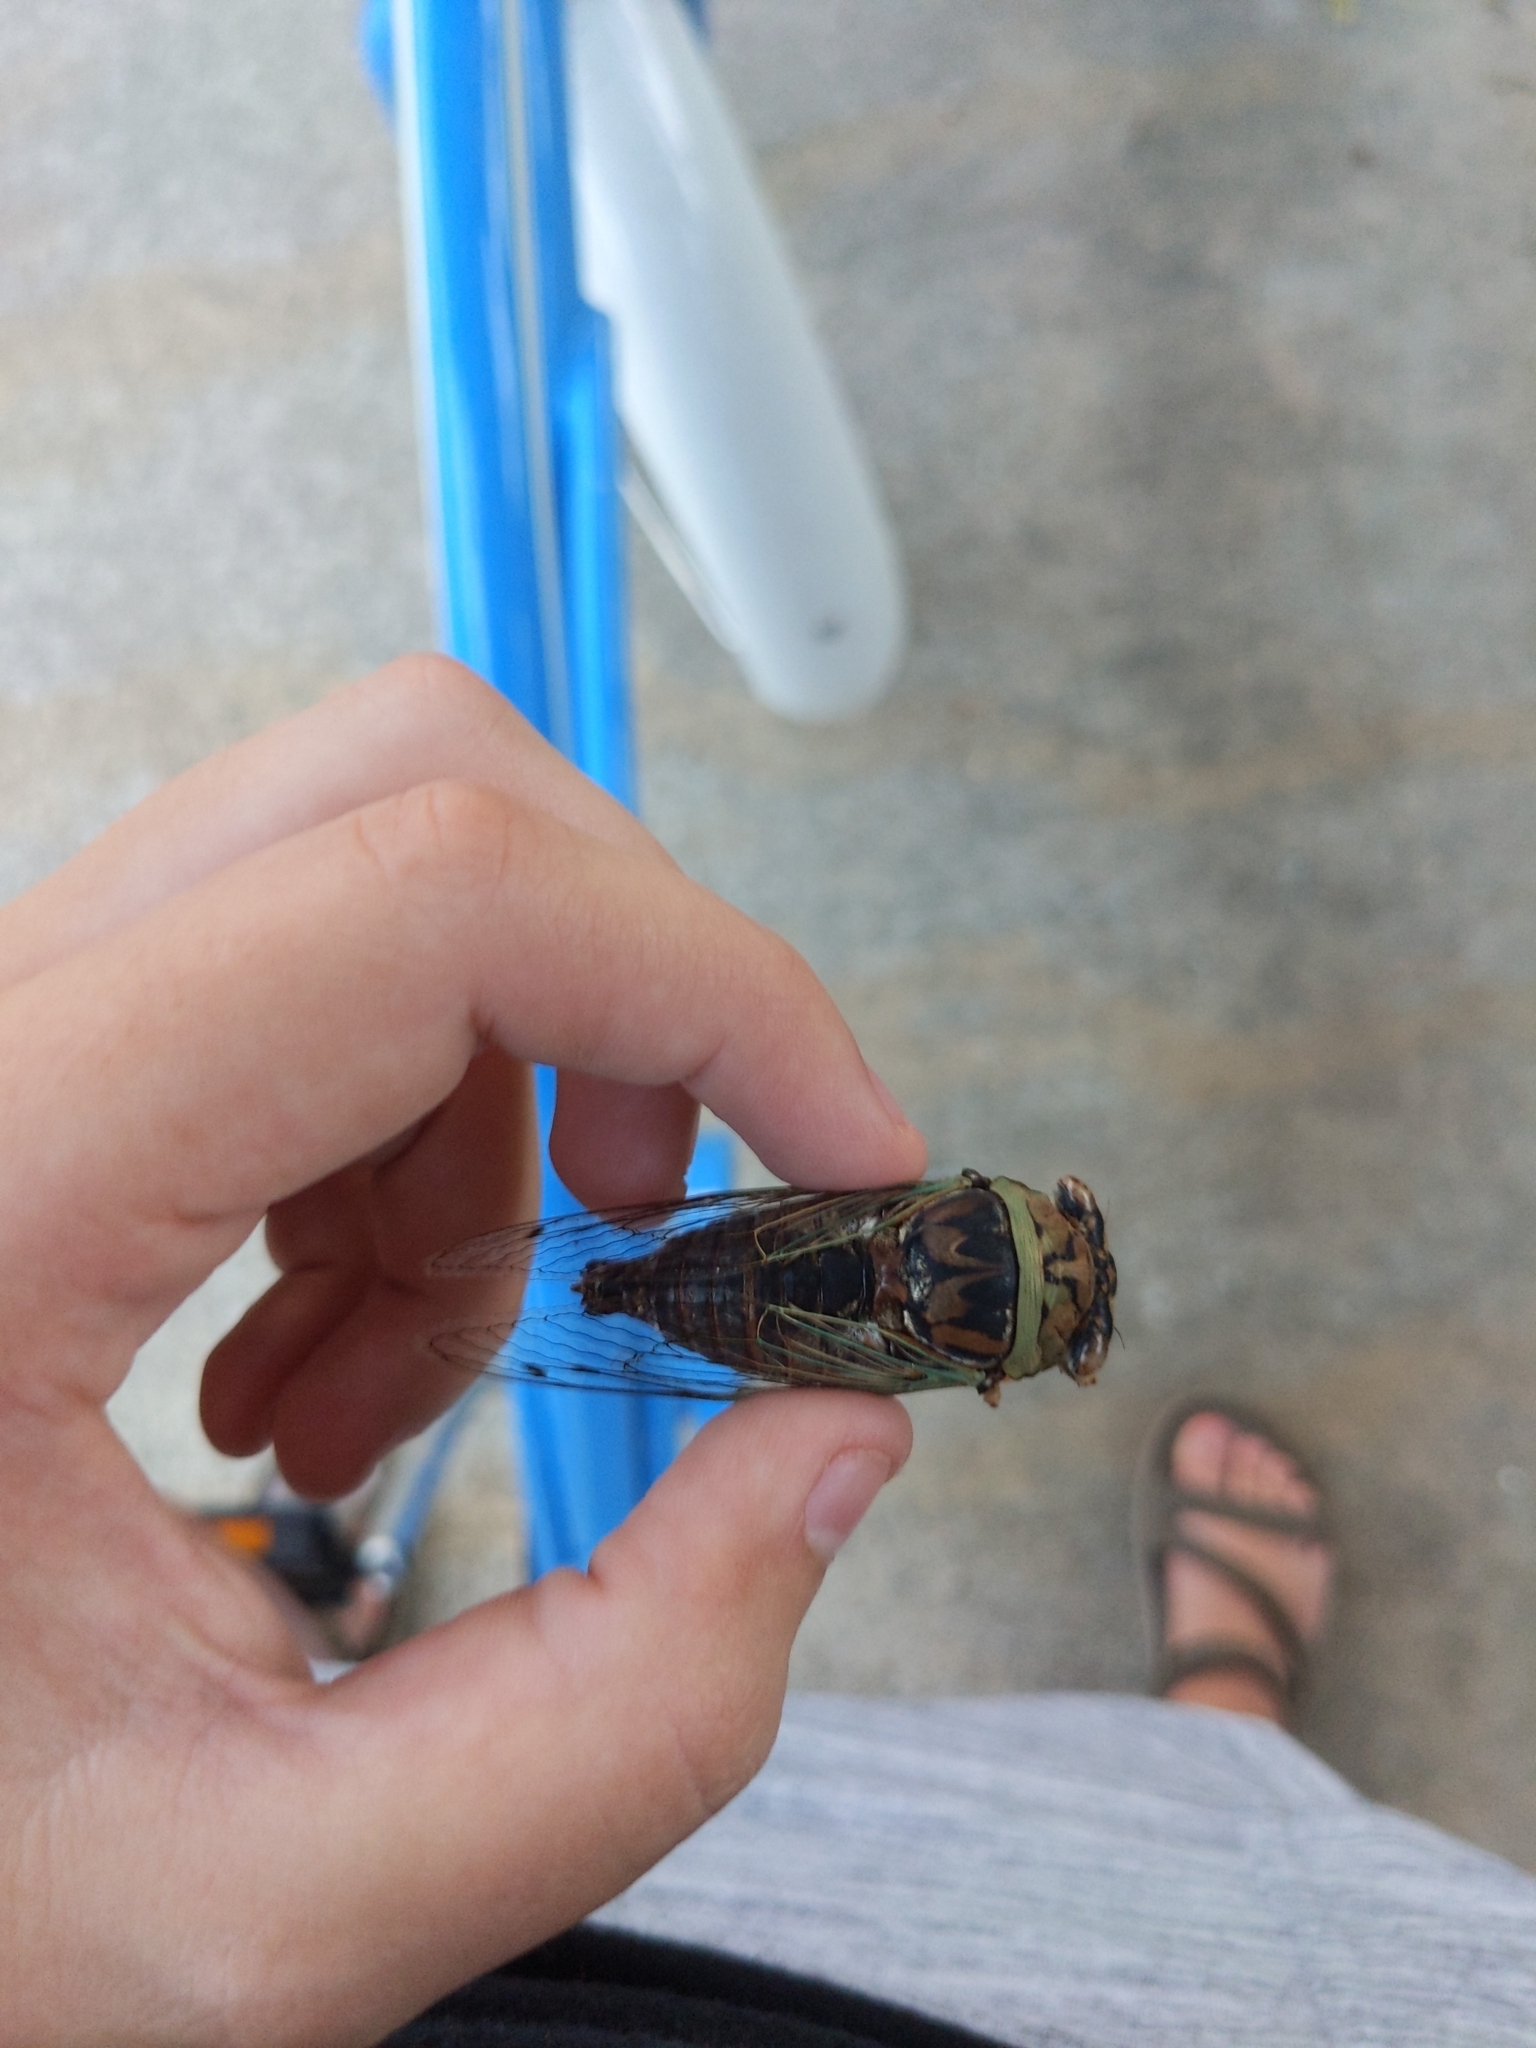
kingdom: Animalia
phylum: Arthropoda
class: Insecta
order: Hemiptera
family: Cicadidae
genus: Megatibicen
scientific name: Megatibicen resh
